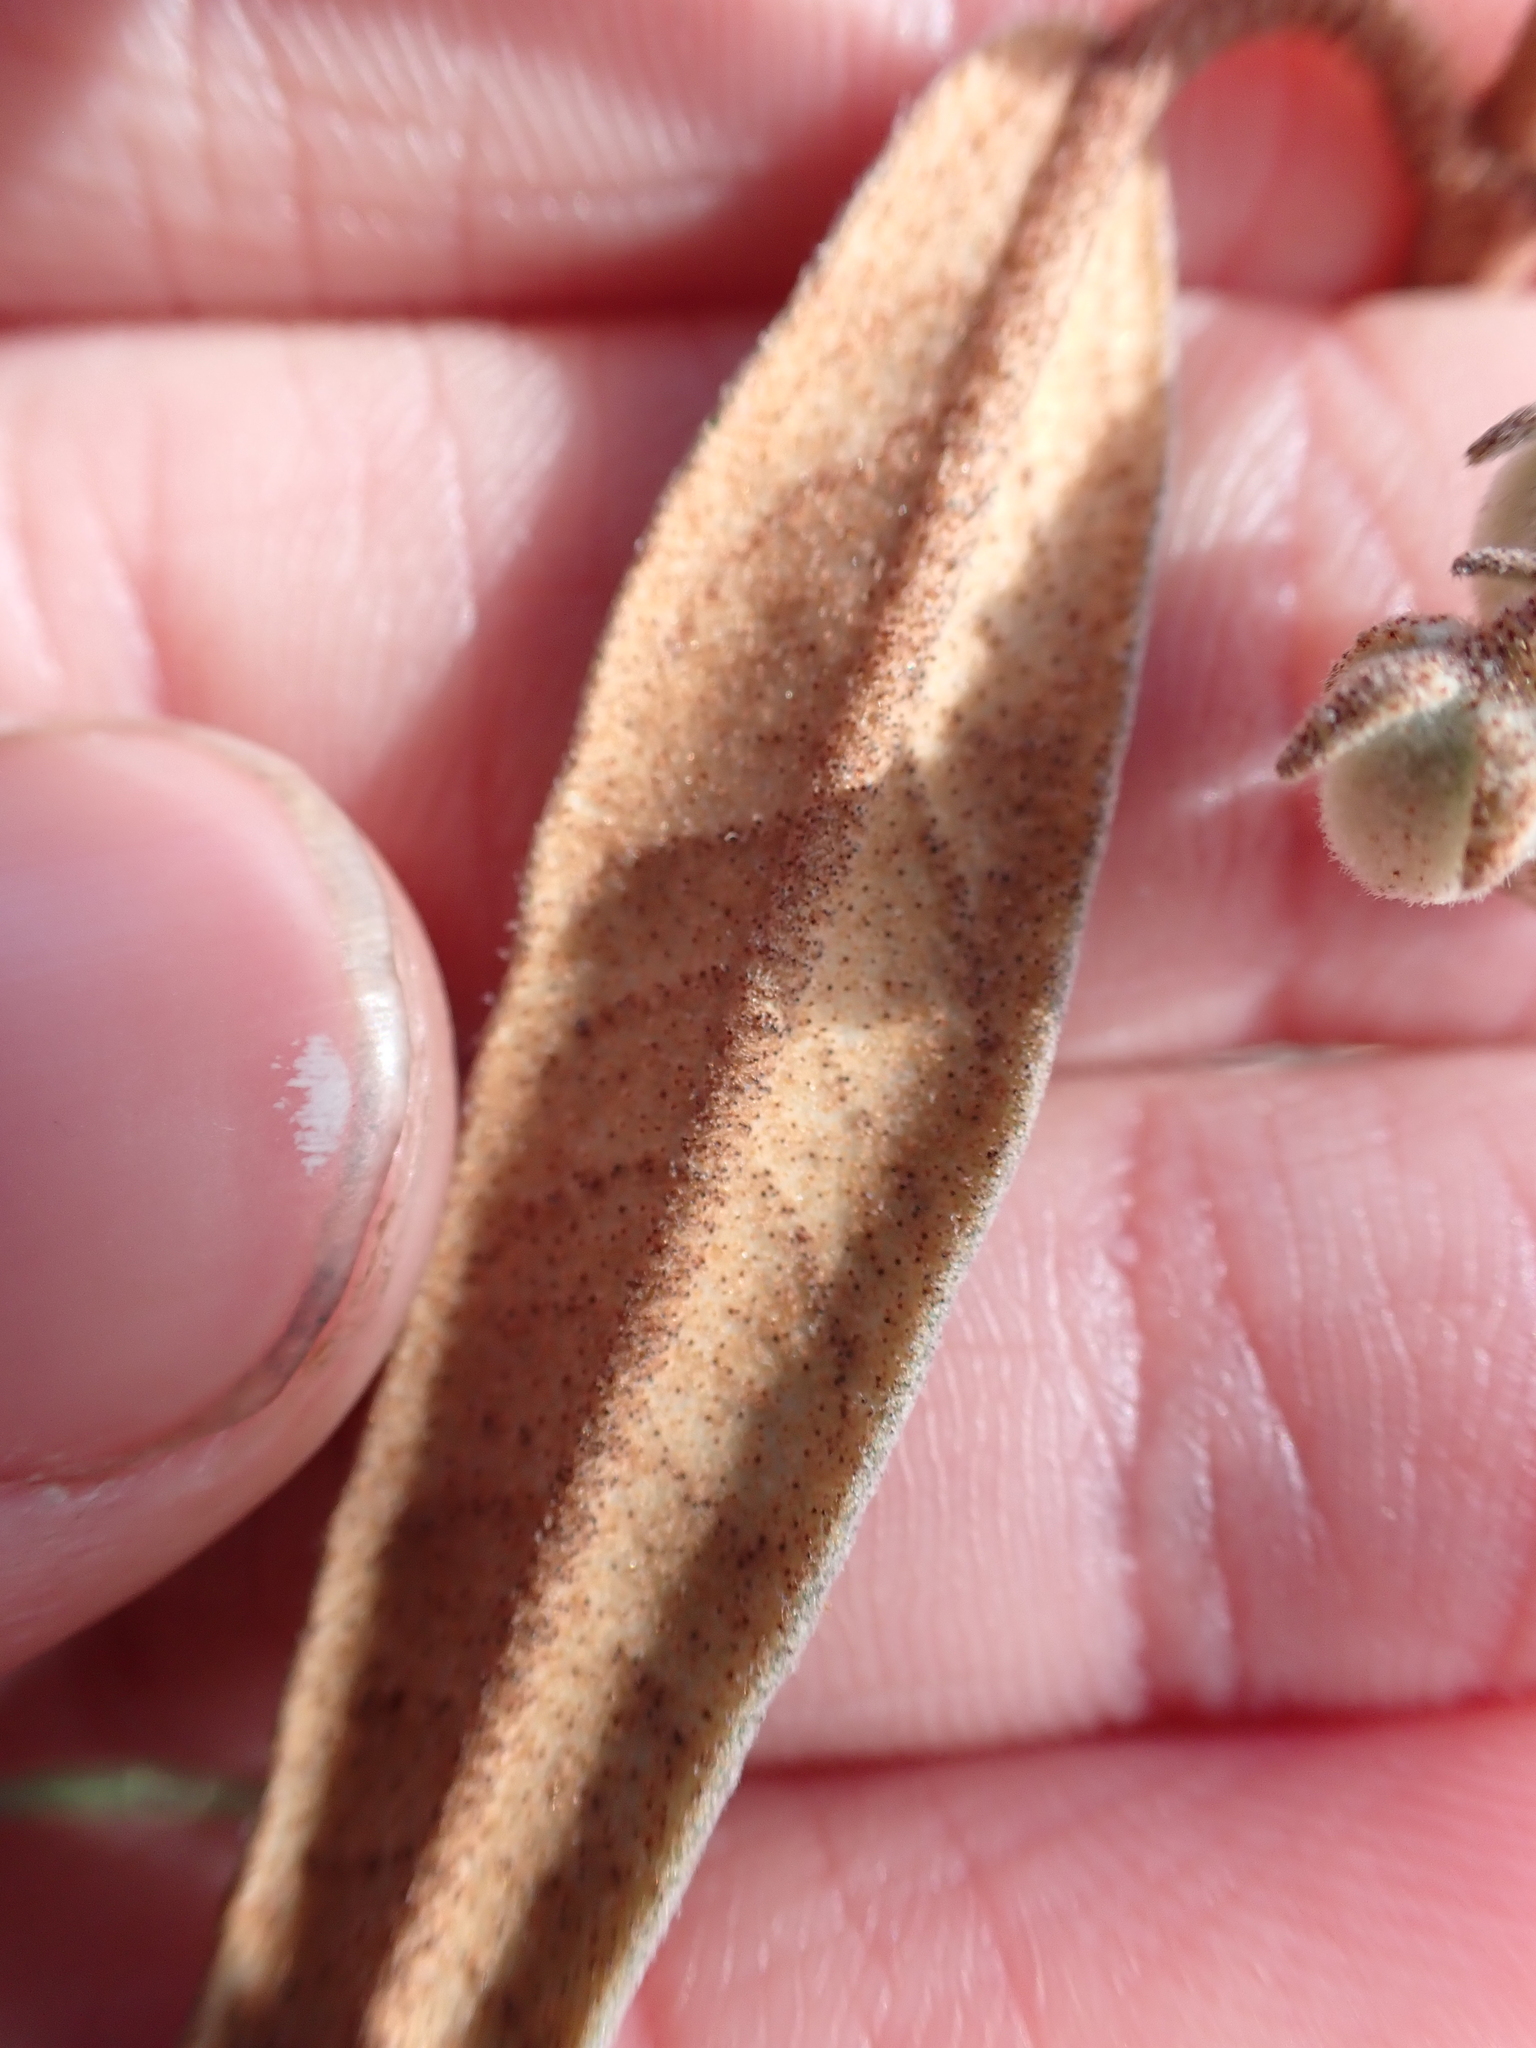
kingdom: Plantae
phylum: Tracheophyta
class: Magnoliopsida
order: Malvales
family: Malvaceae
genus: Lasiopetalum
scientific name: Lasiopetalum baueri
